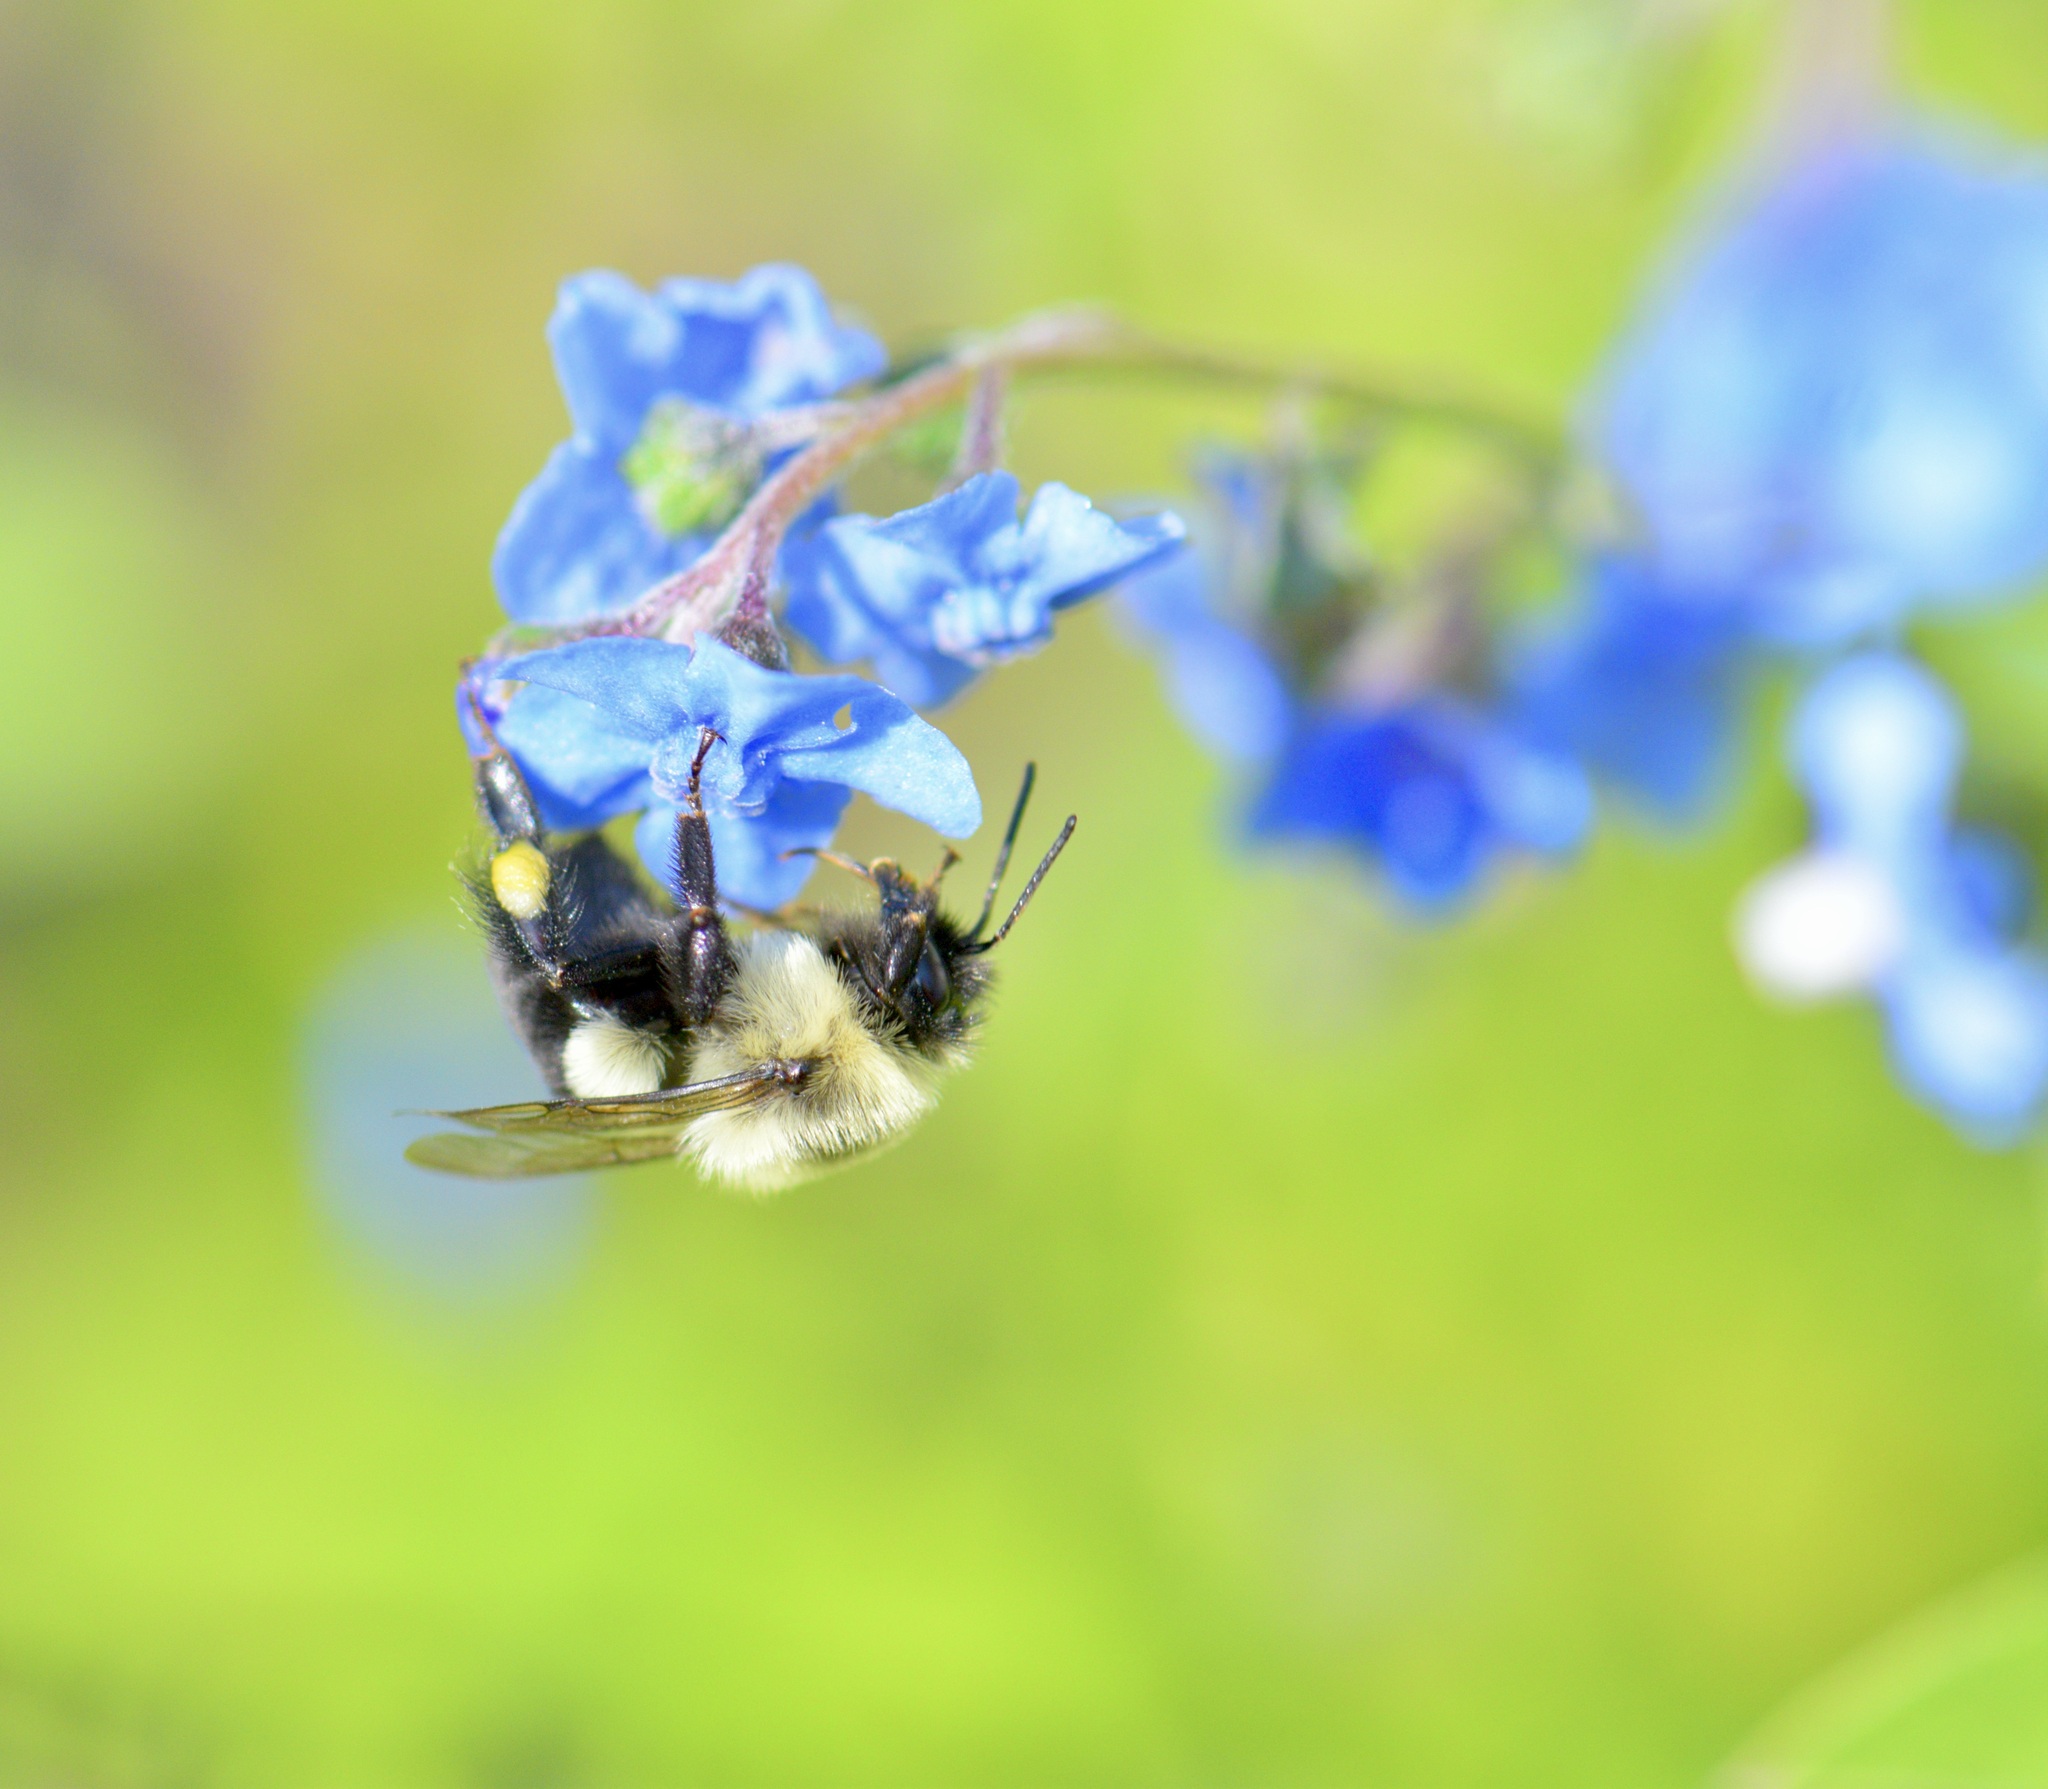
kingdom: Animalia
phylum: Arthropoda
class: Insecta
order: Hymenoptera
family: Apidae
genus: Bombus
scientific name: Bombus impatiens
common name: Common eastern bumble bee
